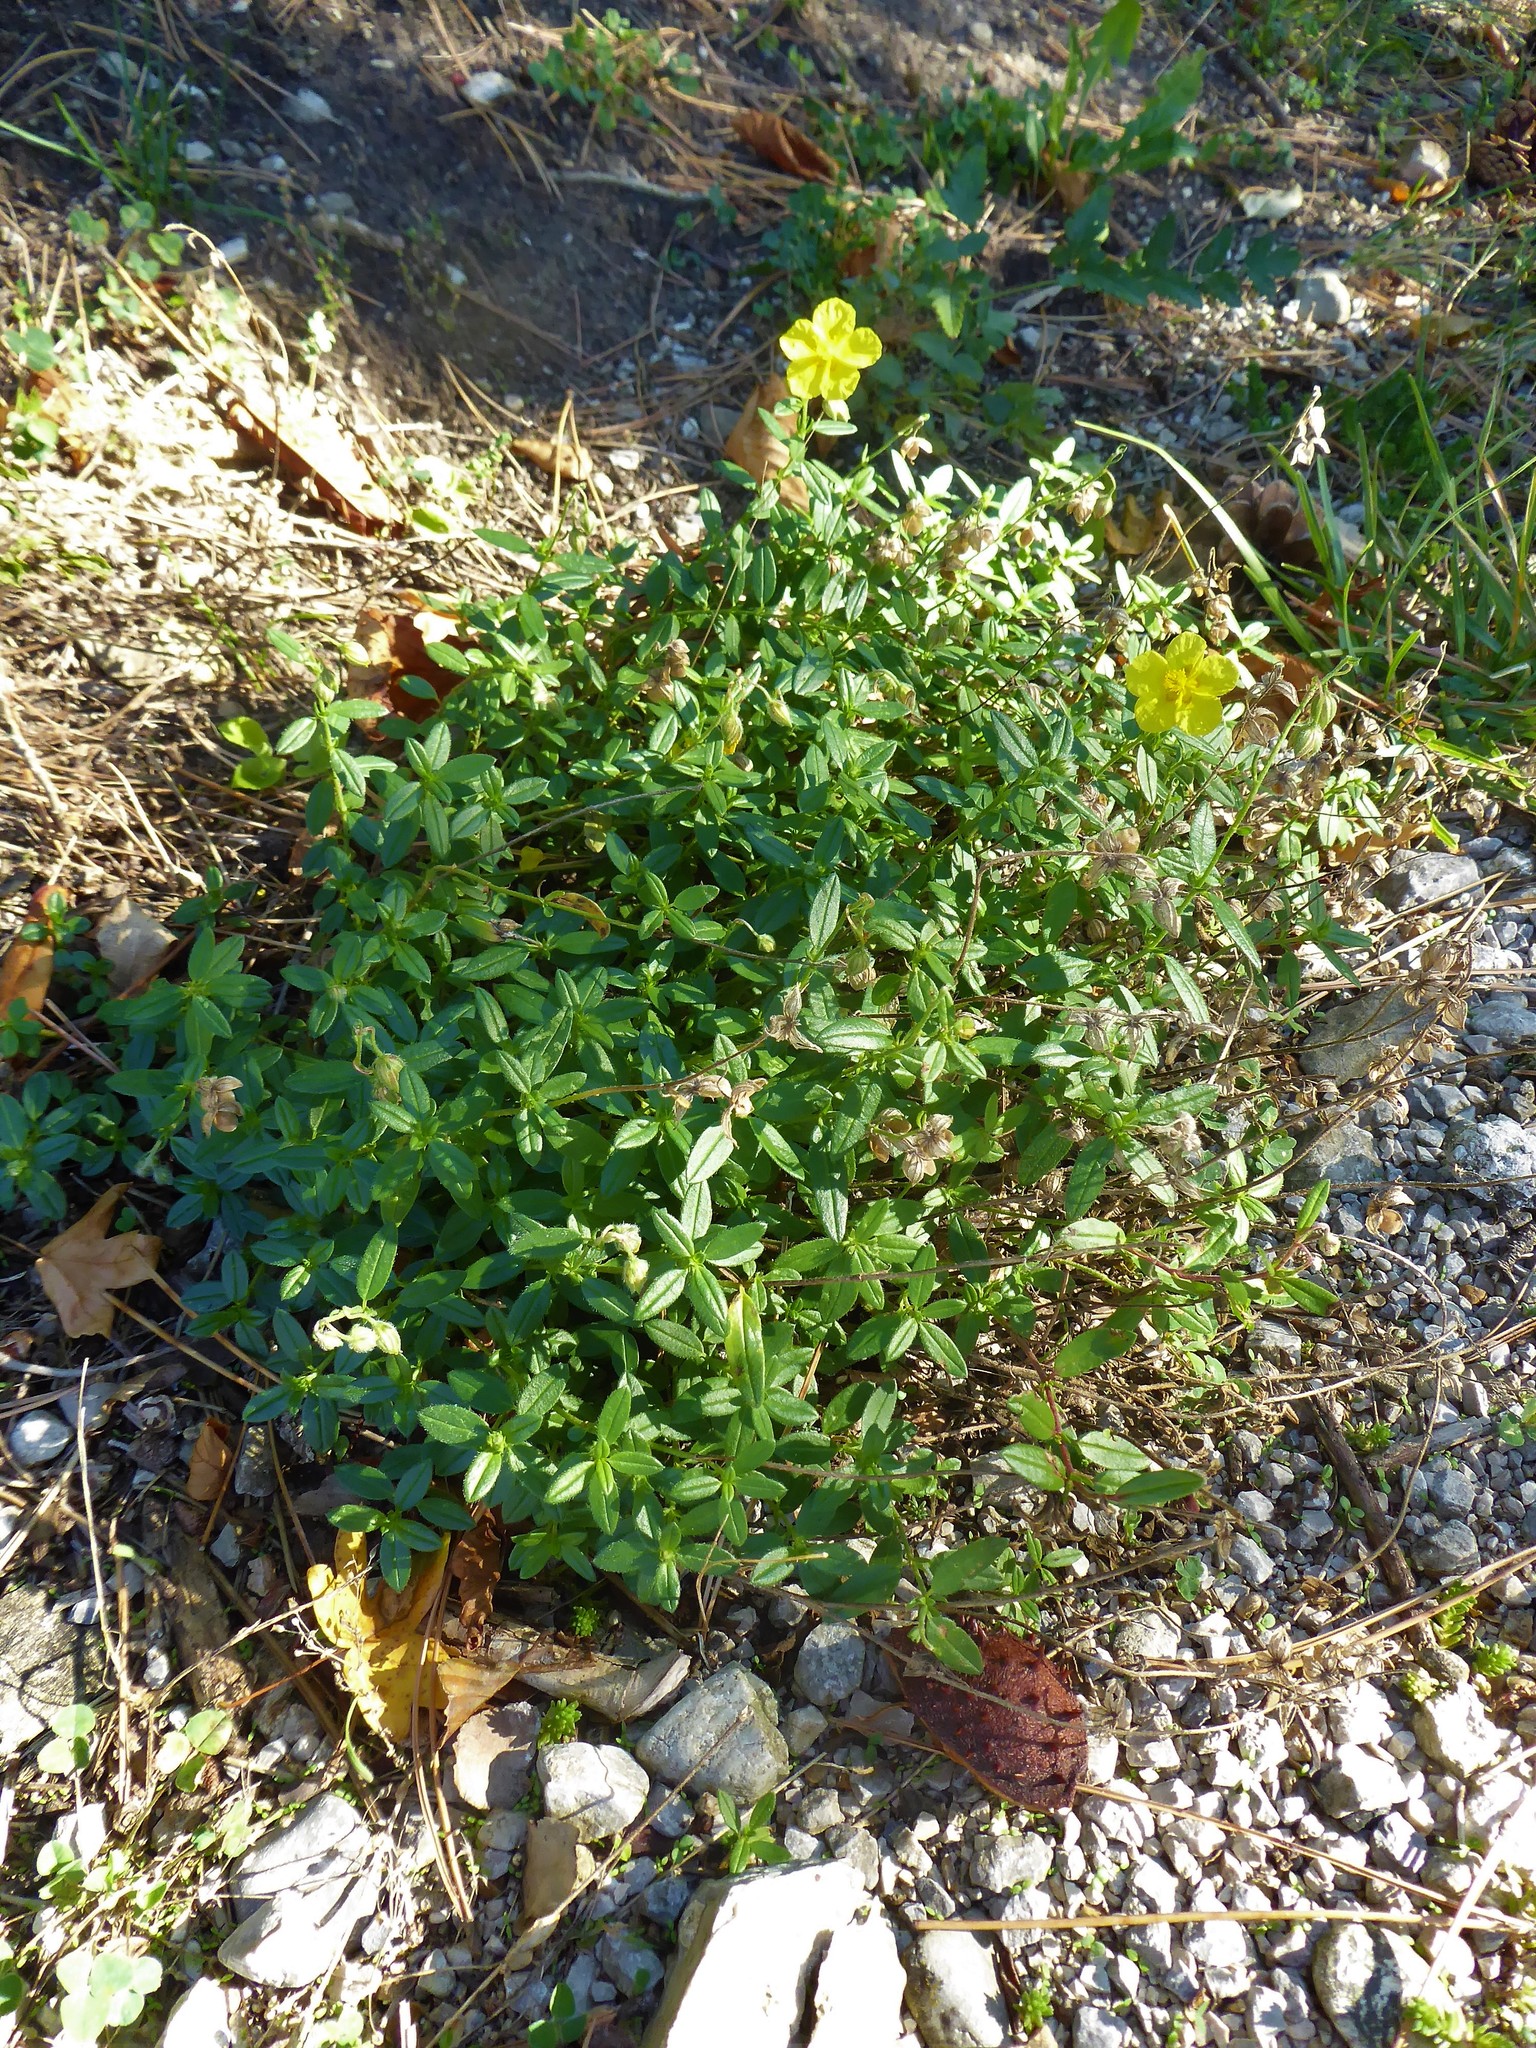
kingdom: Plantae
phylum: Tracheophyta
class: Magnoliopsida
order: Malvales
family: Cistaceae
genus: Helianthemum
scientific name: Helianthemum nummularium
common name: Common rock-rose
